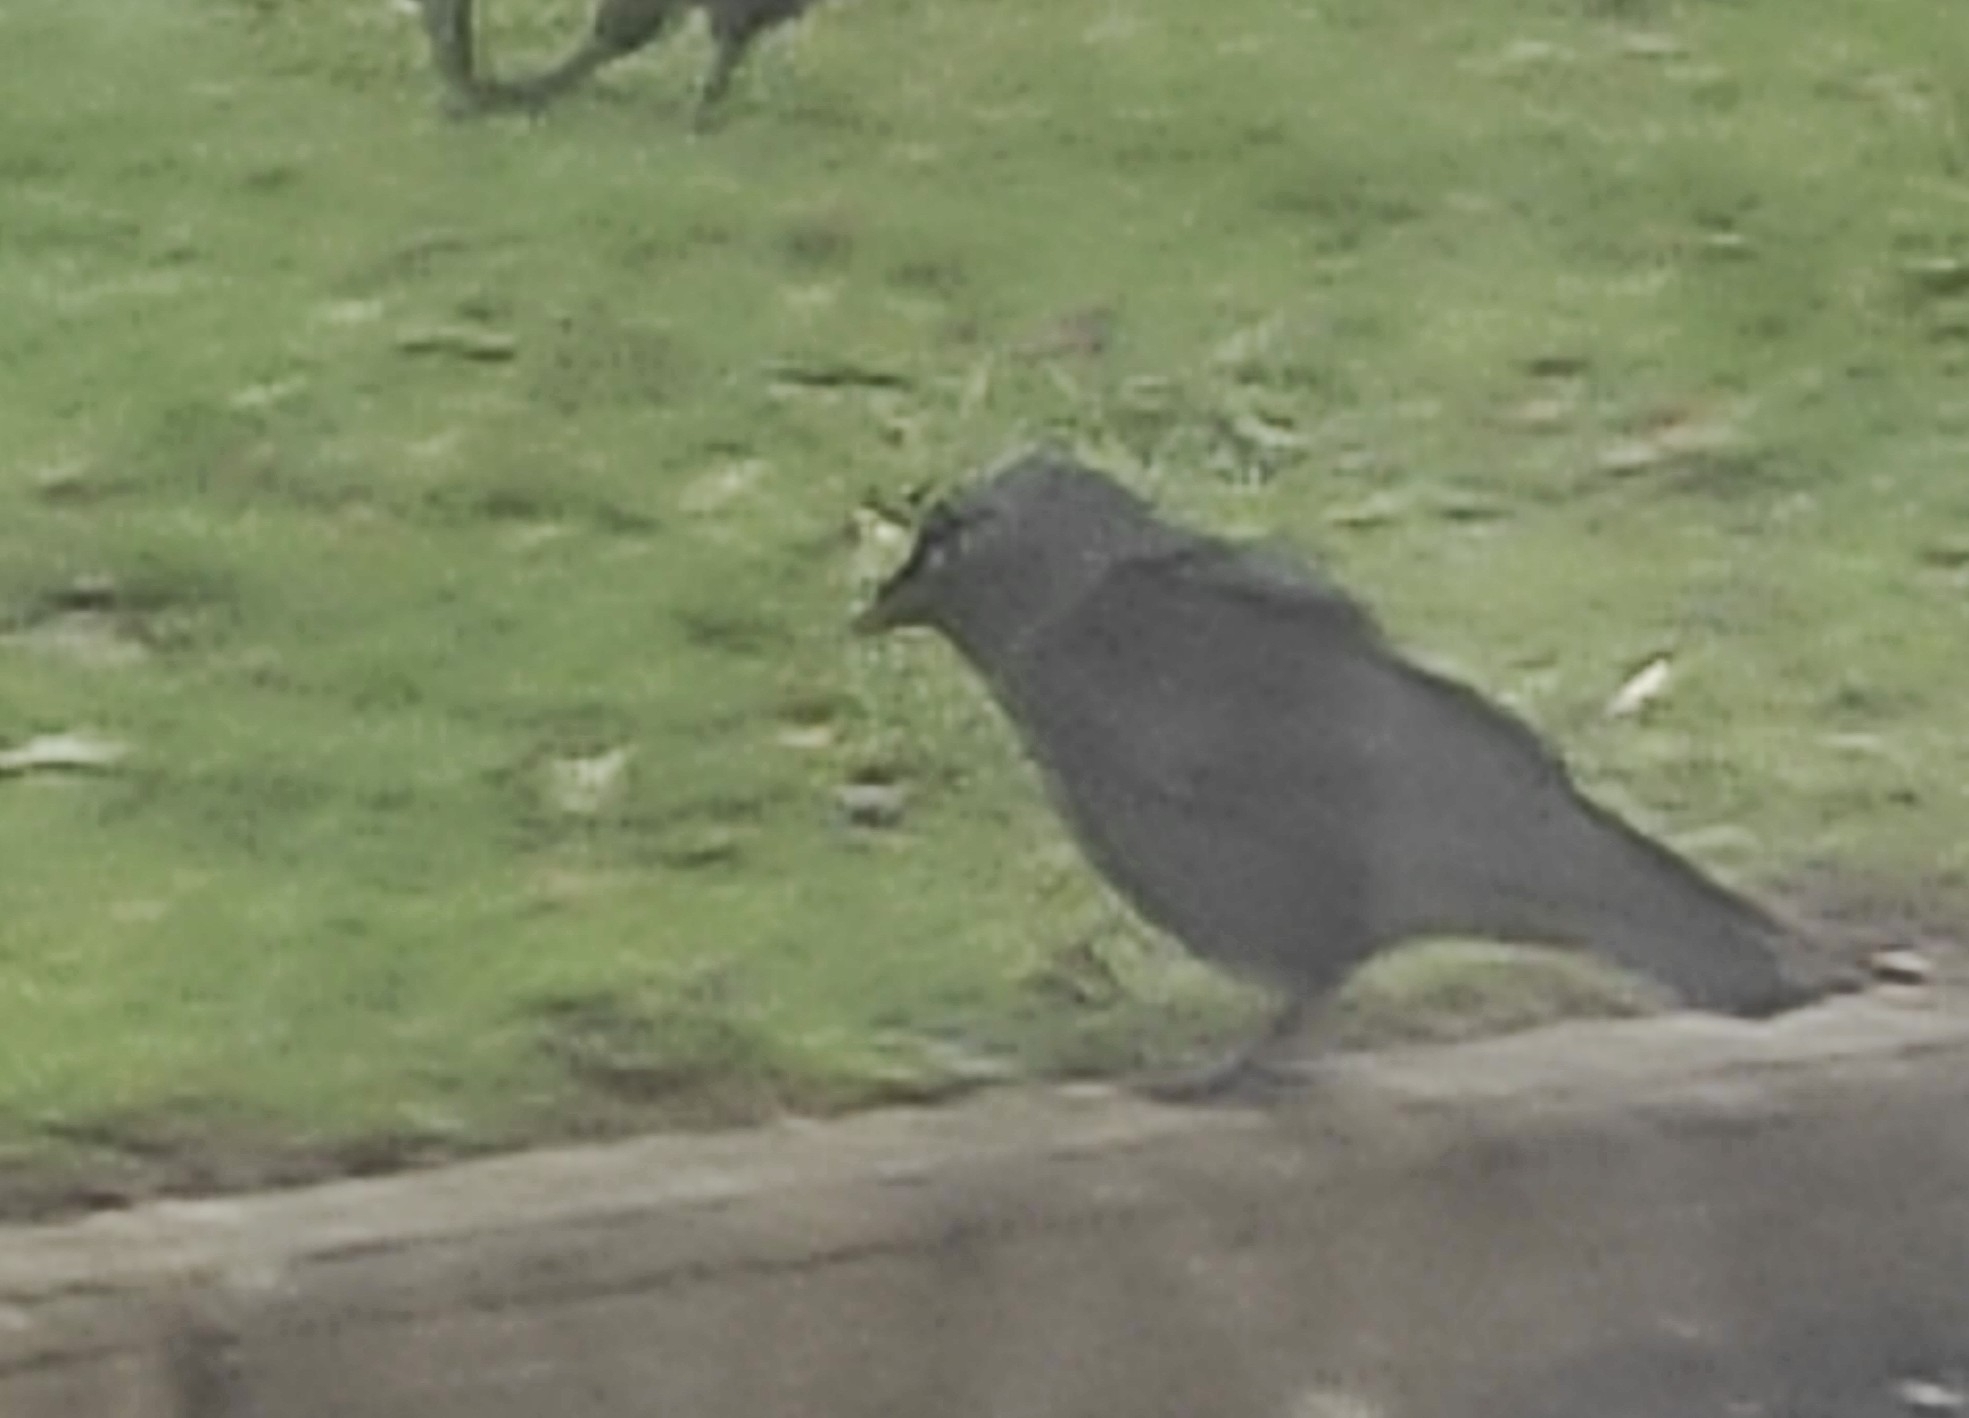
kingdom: Animalia
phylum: Chordata
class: Aves
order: Passeriformes
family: Corvidae
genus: Coloeus
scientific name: Coloeus monedula
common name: Western jackdaw
